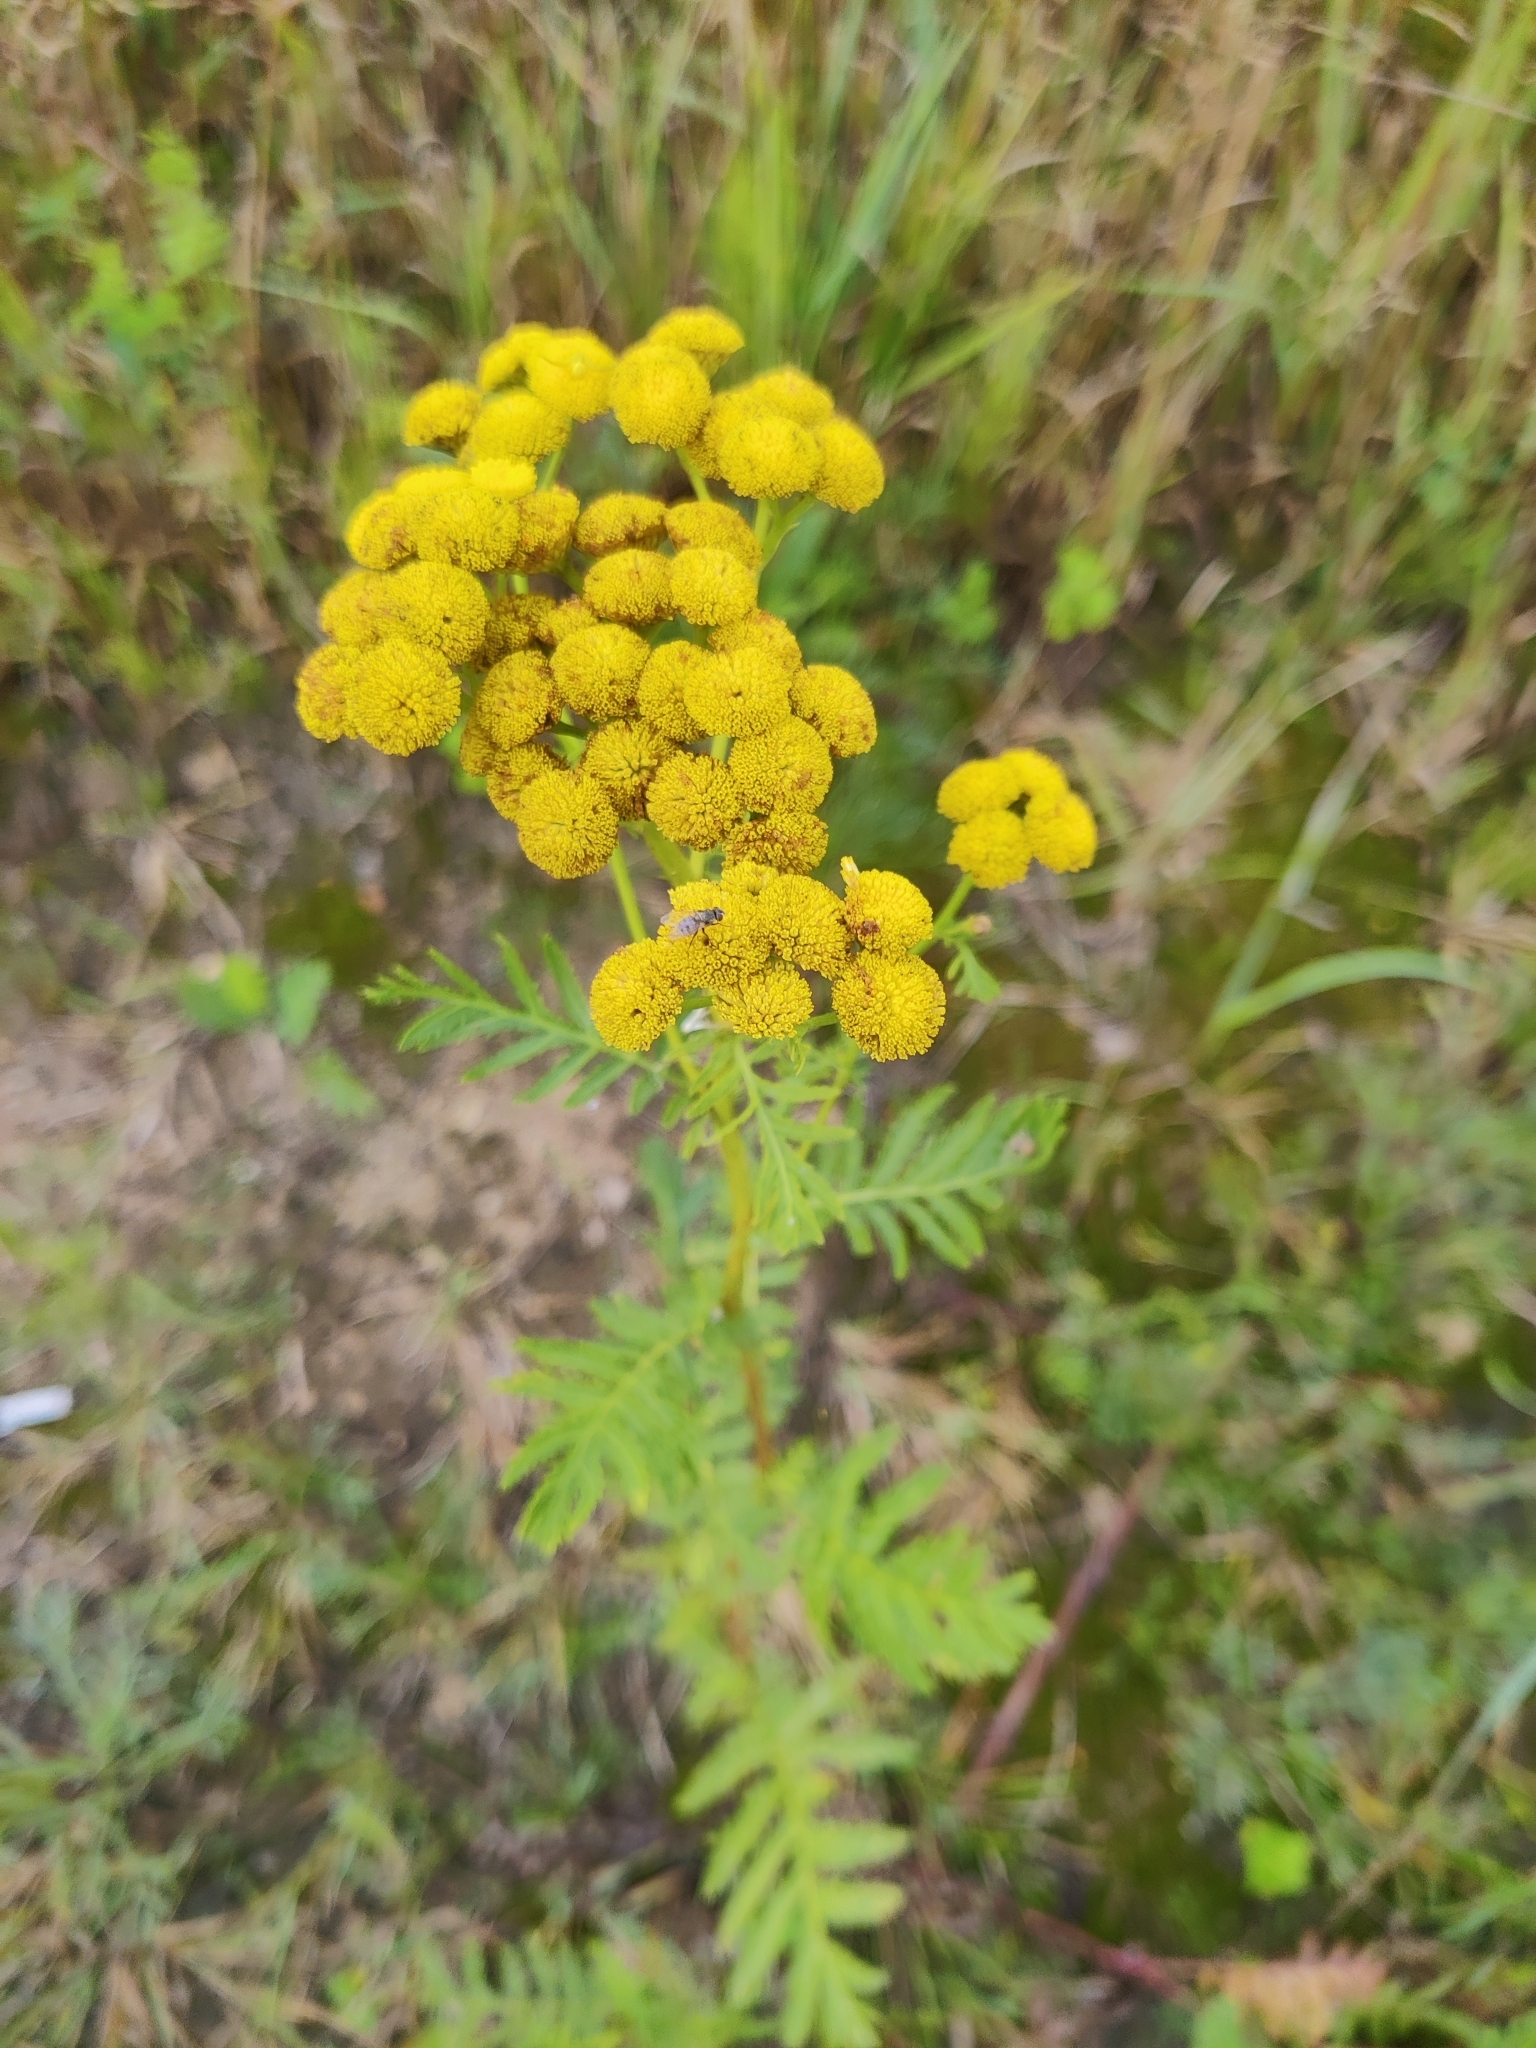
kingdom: Plantae
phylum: Tracheophyta
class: Magnoliopsida
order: Asterales
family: Asteraceae
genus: Tanacetum
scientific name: Tanacetum vulgare
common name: Common tansy
